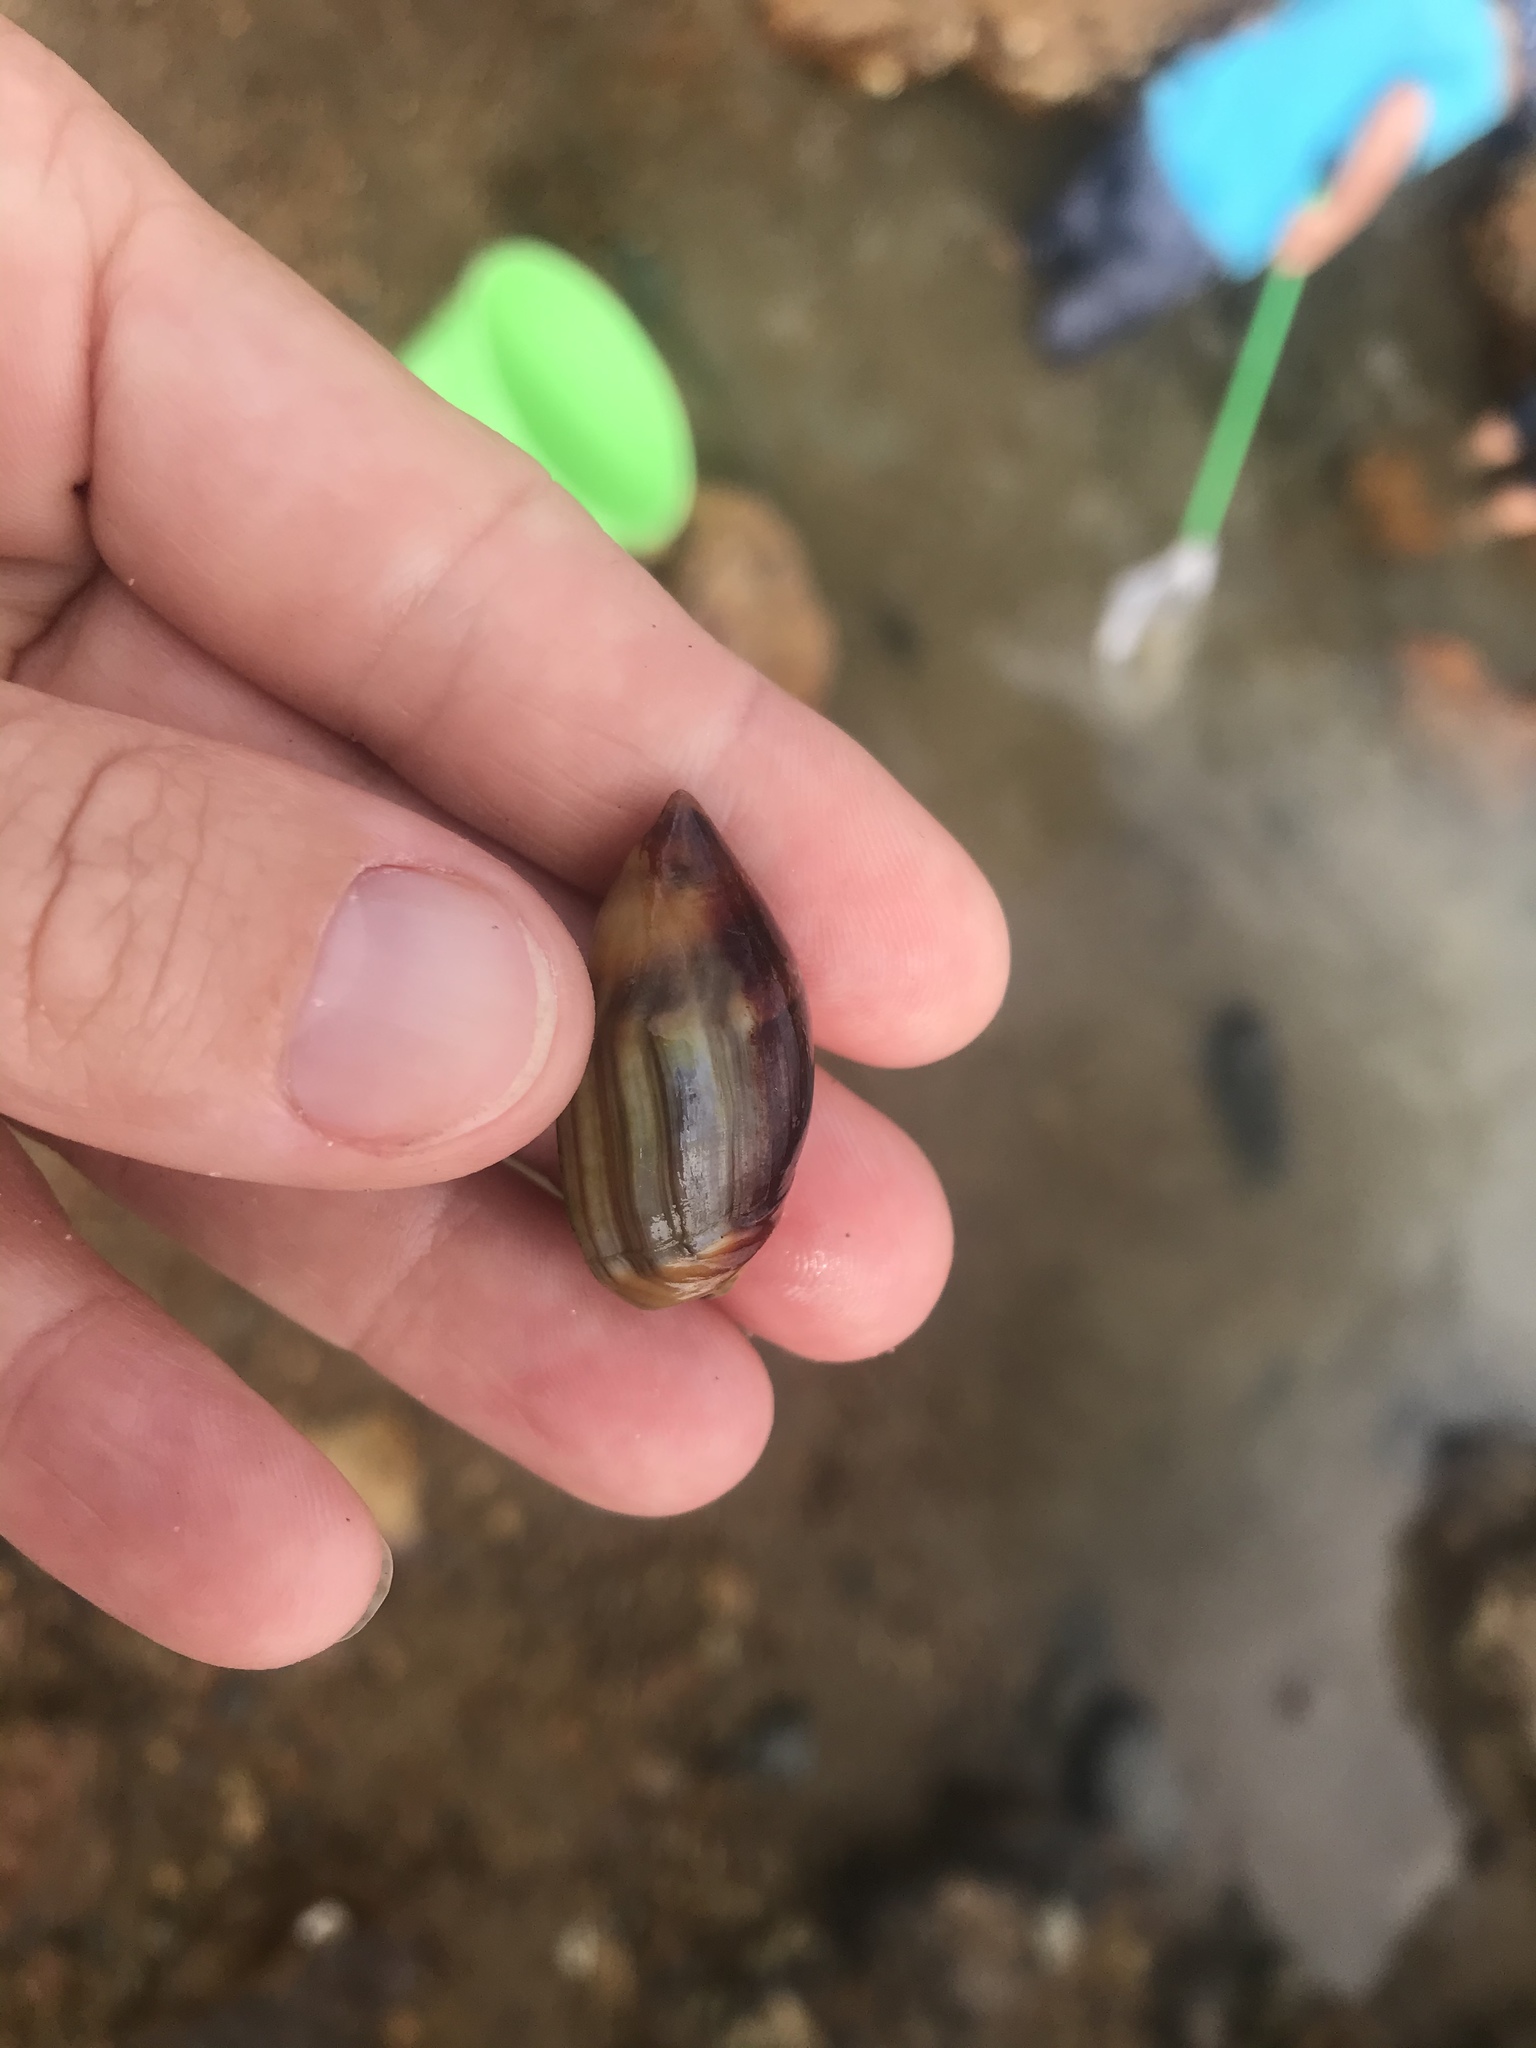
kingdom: Animalia
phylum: Mollusca
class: Gastropoda
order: Neogastropoda
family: Ancillariidae
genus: Amalda
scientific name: Amalda australis
